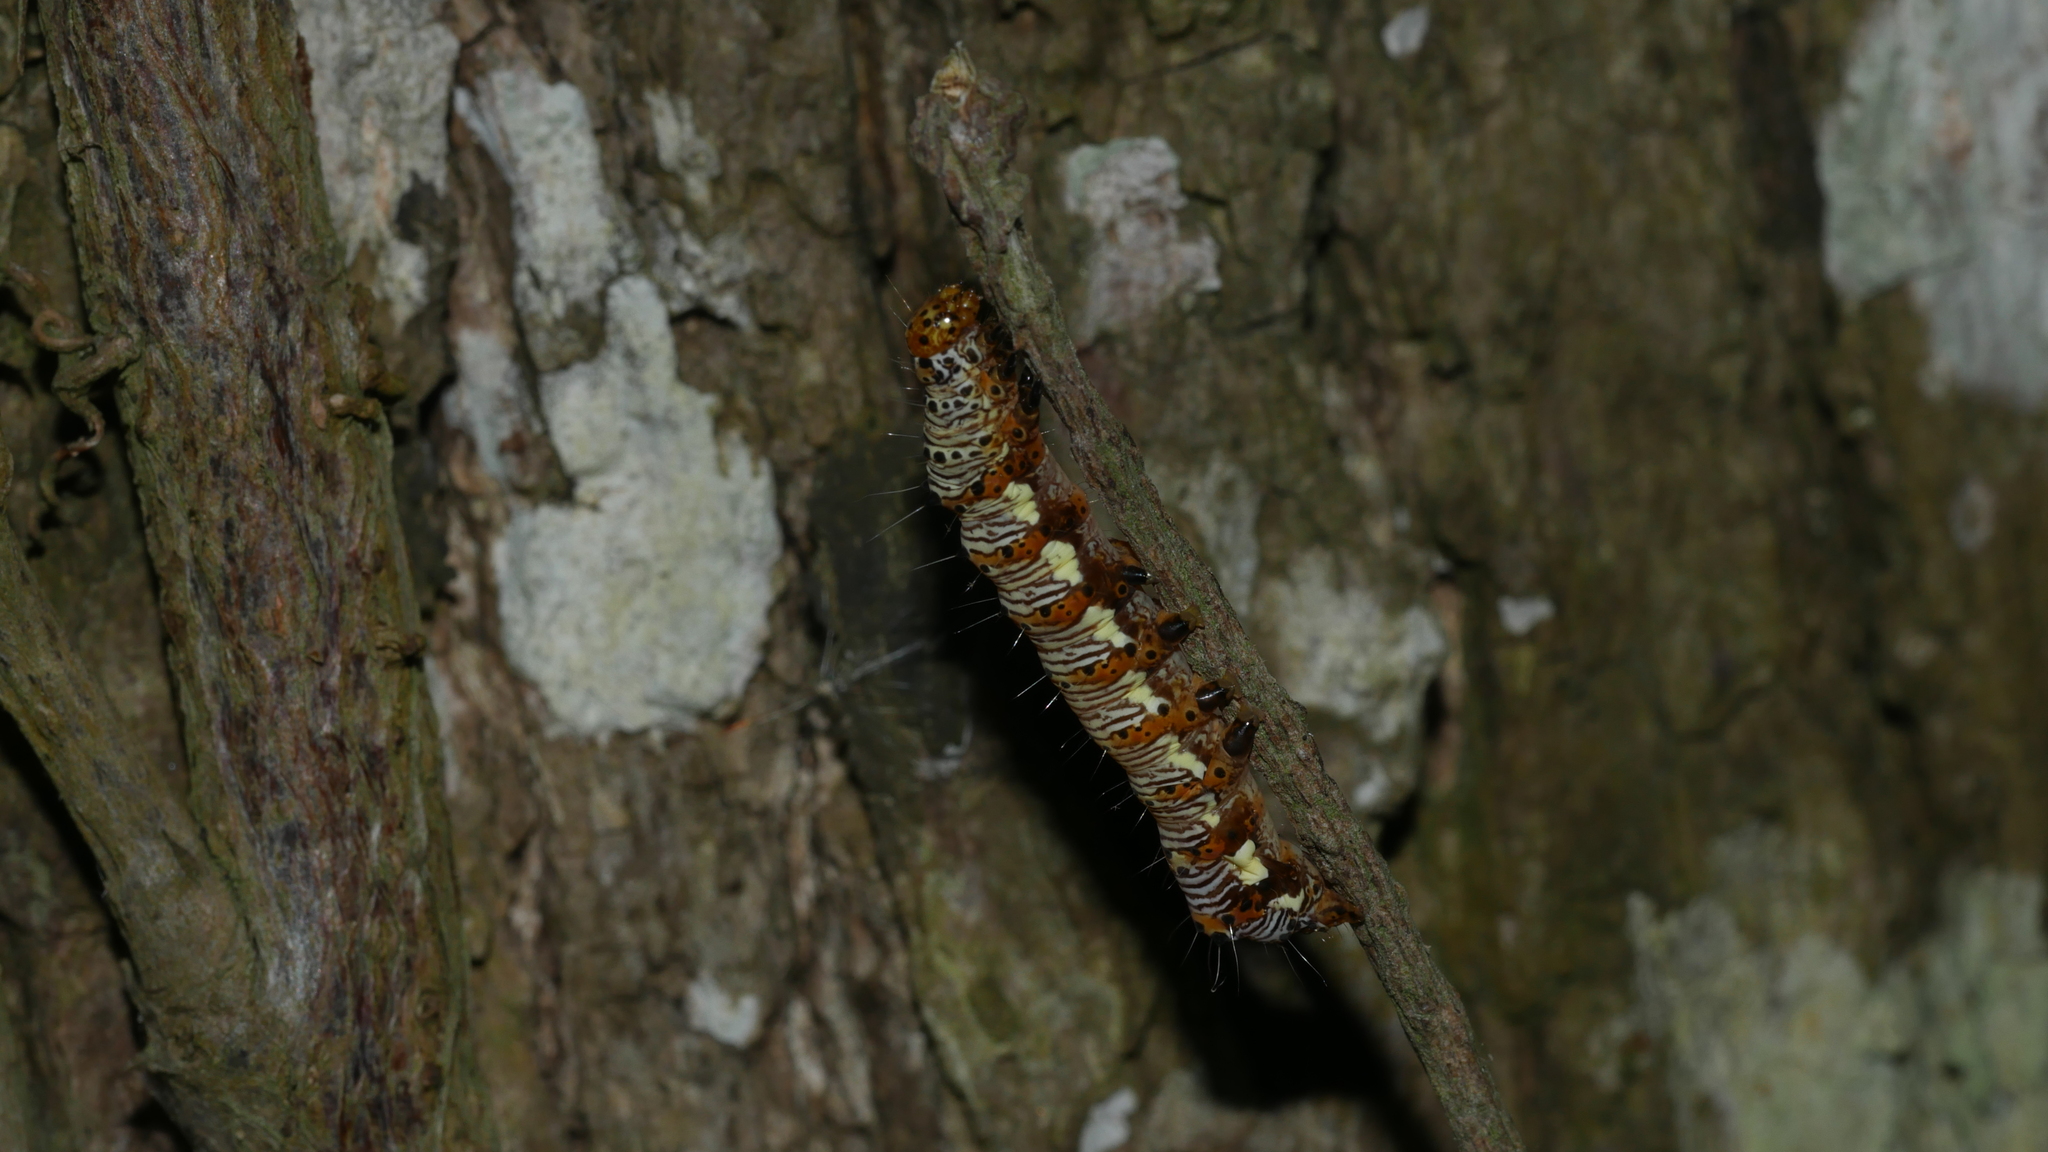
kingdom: Animalia
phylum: Arthropoda
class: Insecta
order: Lepidoptera
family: Noctuidae
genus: Alypia
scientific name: Alypia octomaculata
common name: Eight-spotted forester
